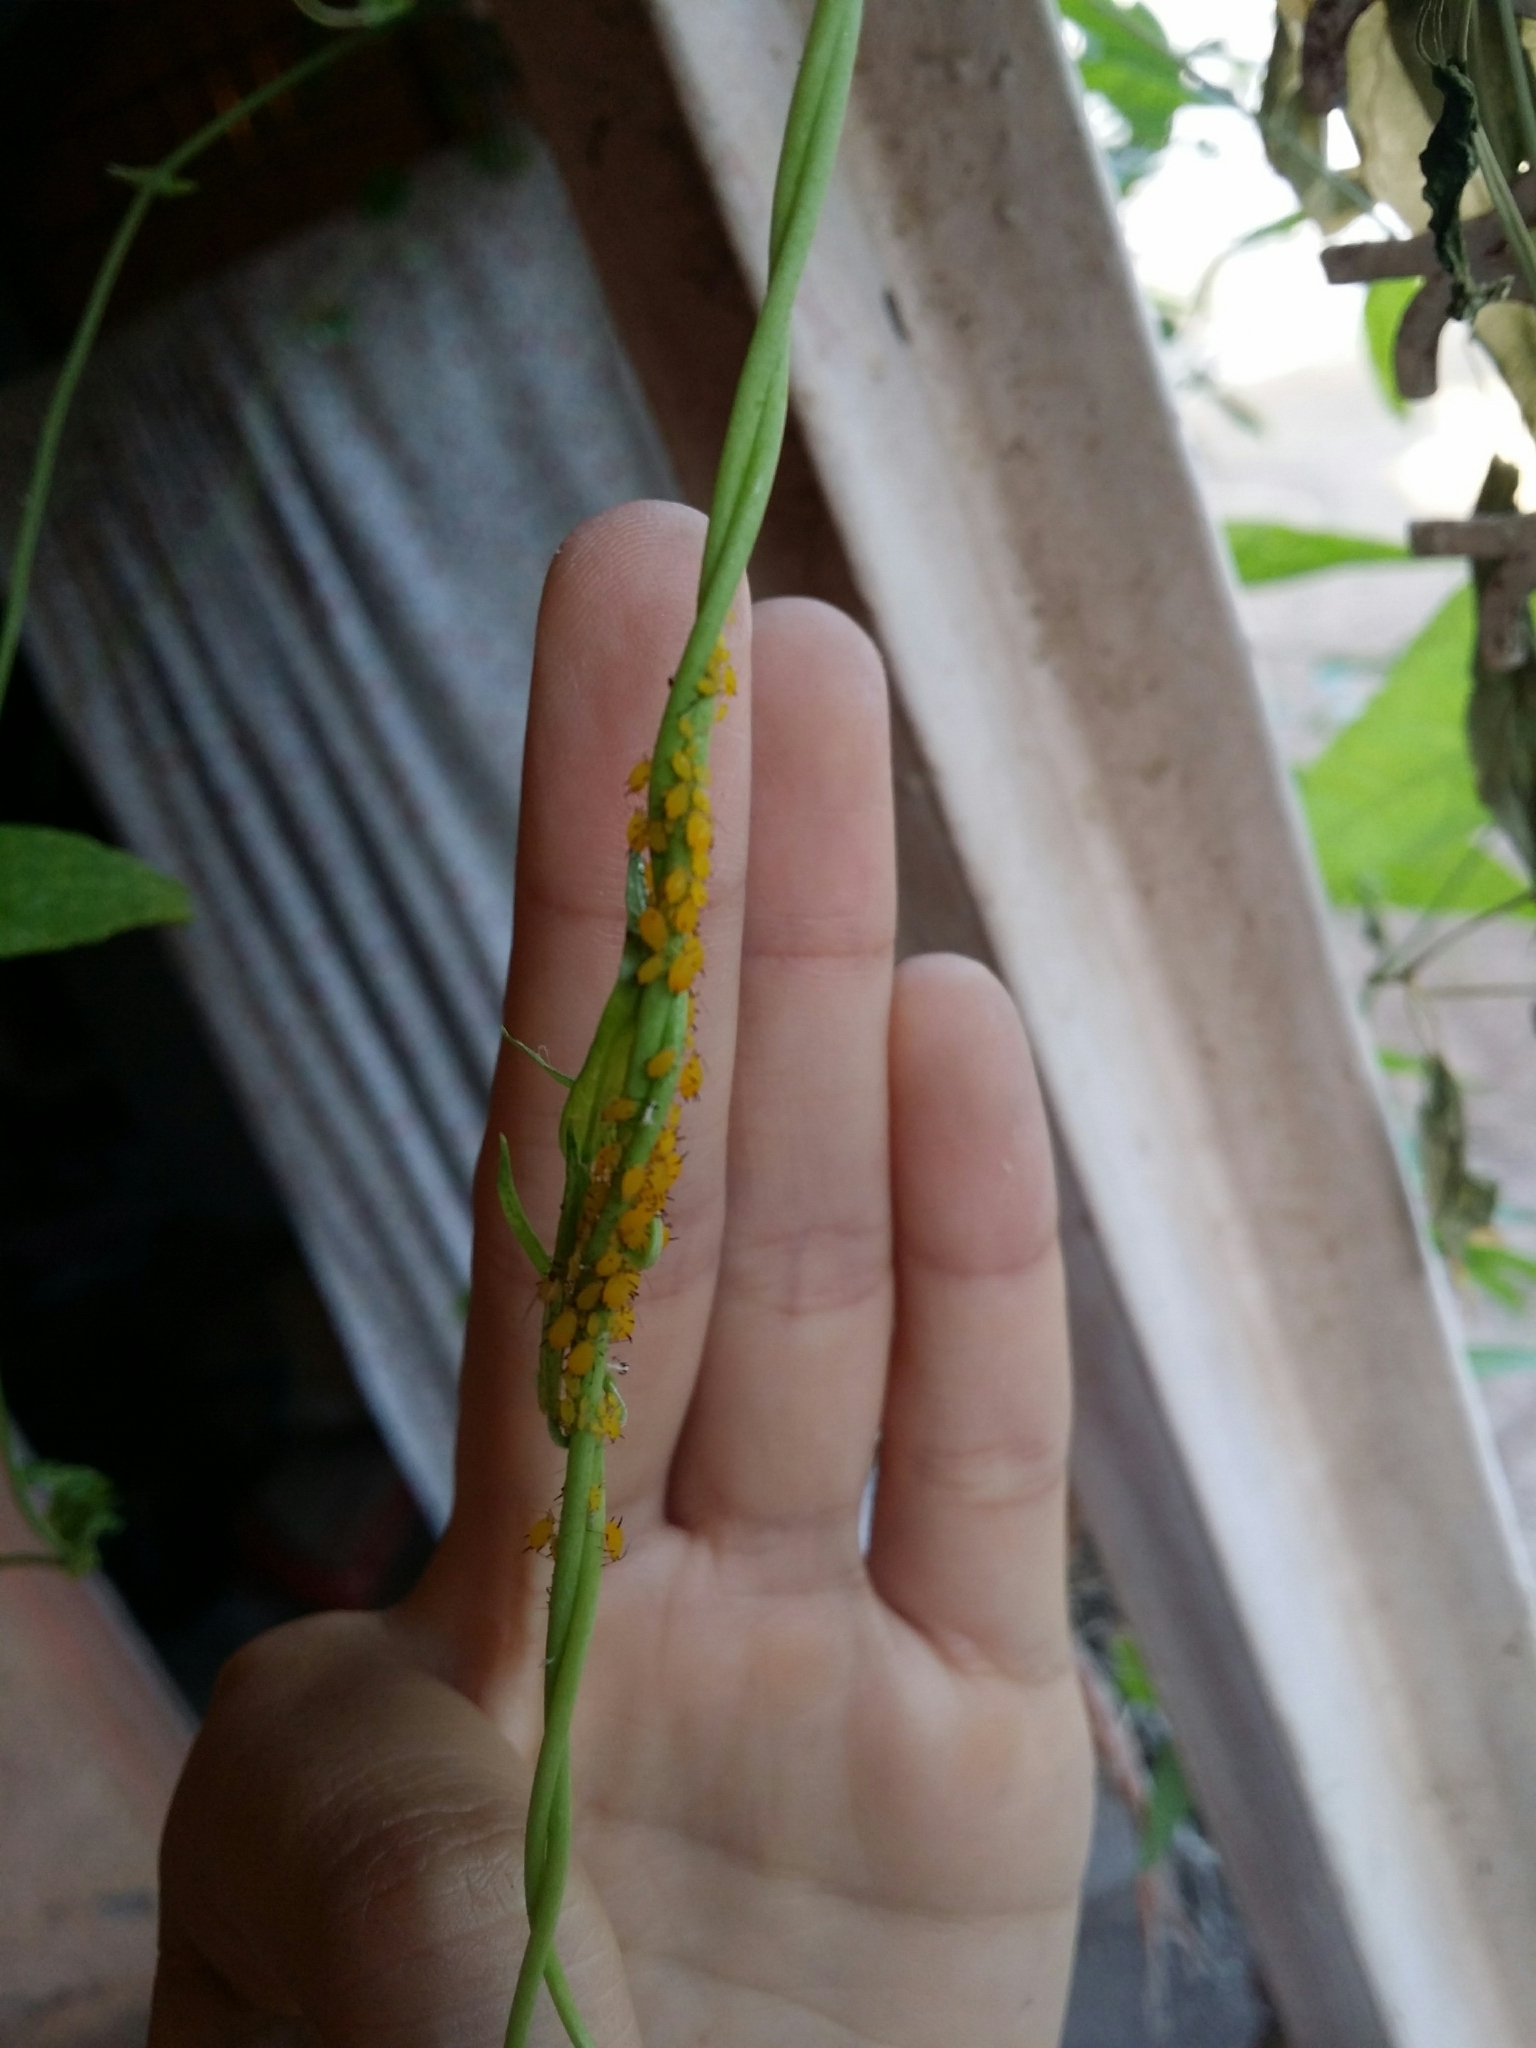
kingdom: Animalia
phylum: Arthropoda
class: Insecta
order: Hemiptera
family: Aphididae
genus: Aphis
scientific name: Aphis nerii
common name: Oleander aphid
